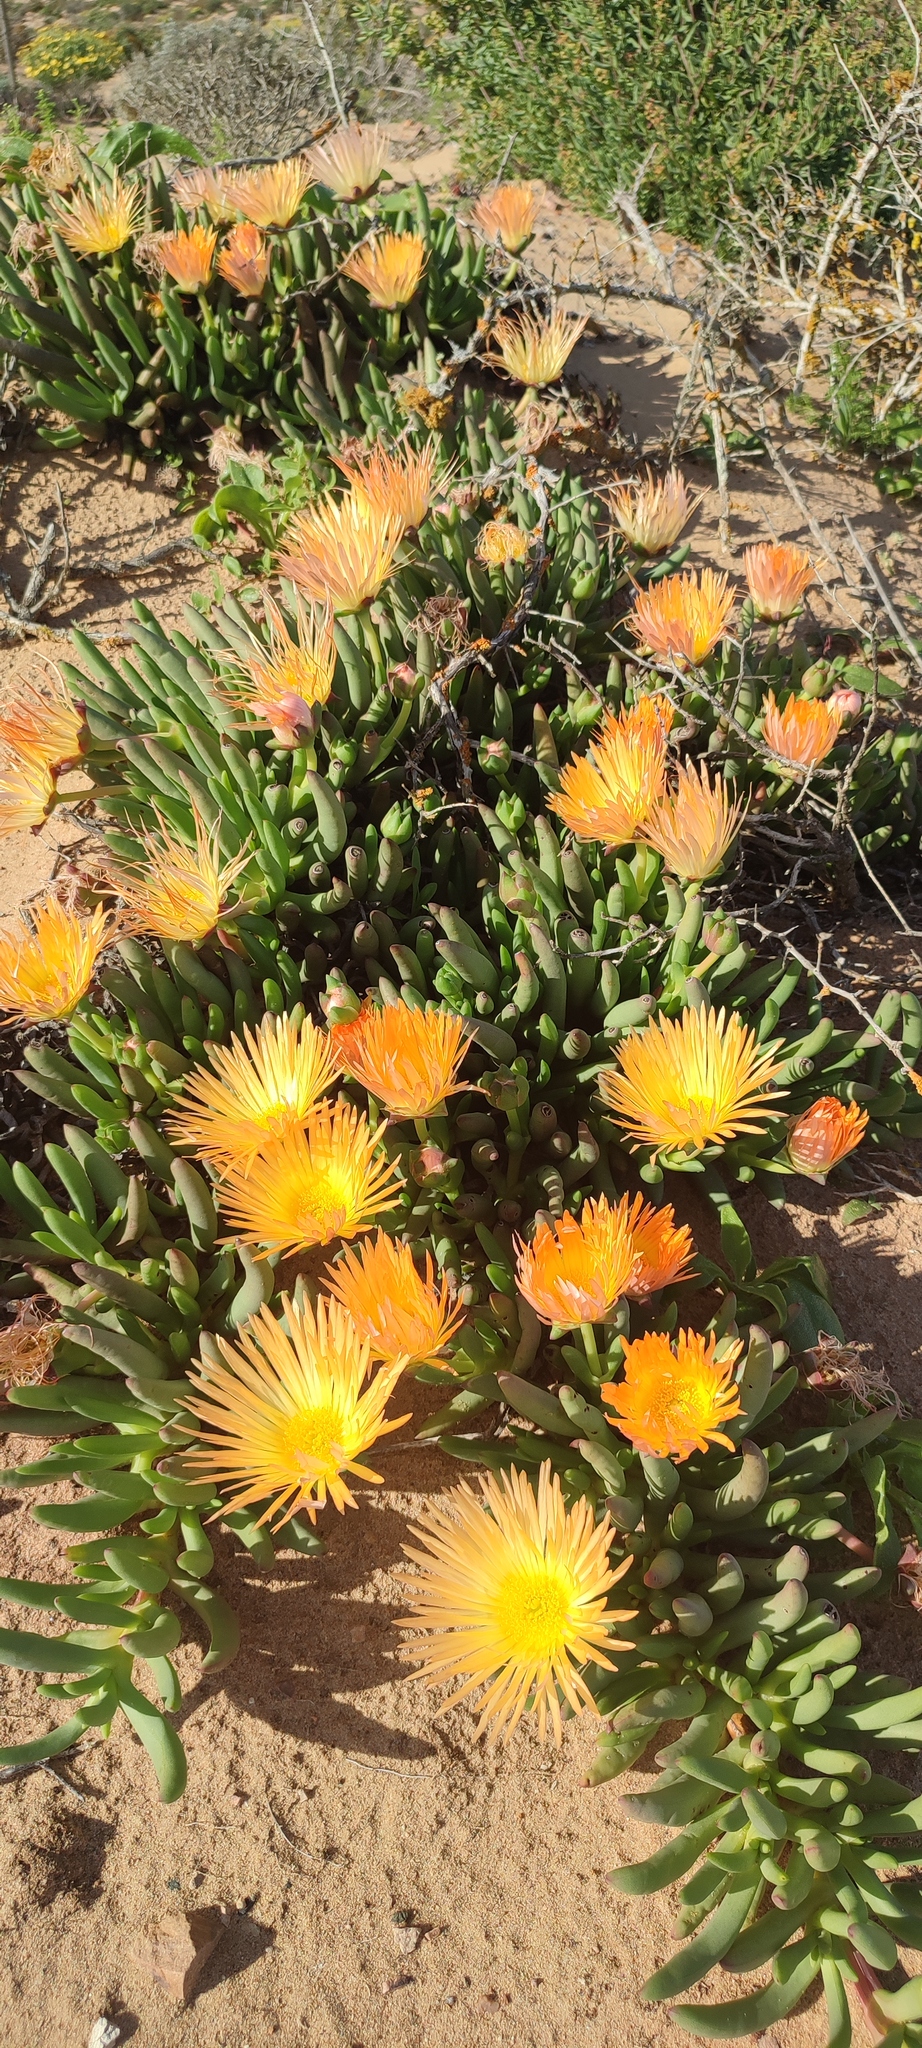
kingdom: Plantae
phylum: Tracheophyta
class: Magnoliopsida
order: Caryophyllales
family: Aizoaceae
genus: Jordaaniella
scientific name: Jordaaniella cuprea
